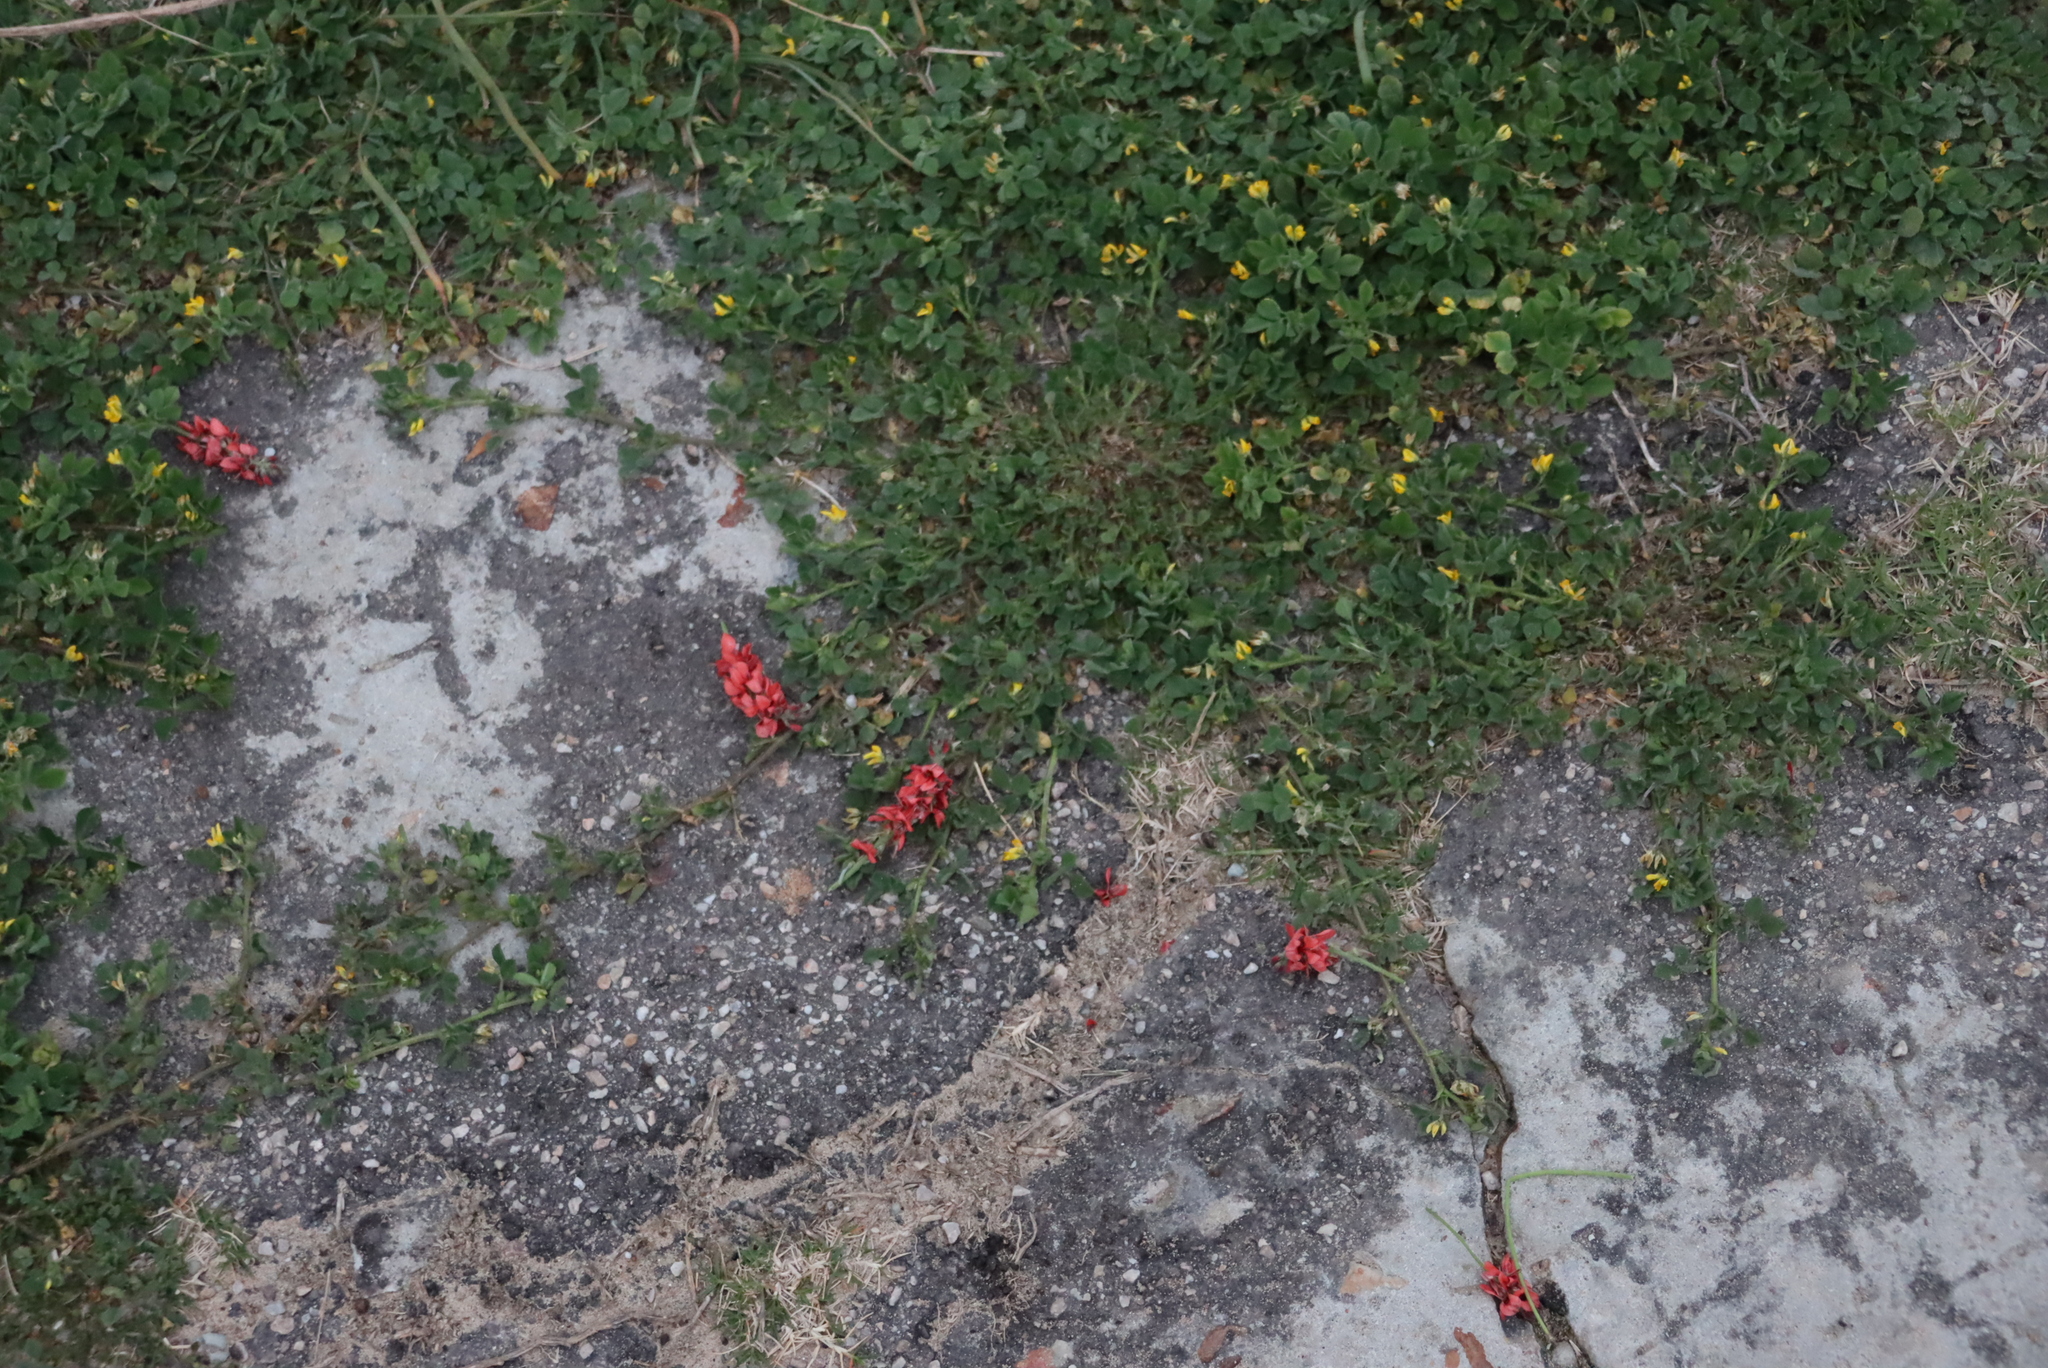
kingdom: Plantae
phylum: Tracheophyta
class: Magnoliopsida
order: Fabales
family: Fabaceae
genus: Indigofera
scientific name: Indigofera heterophylla
